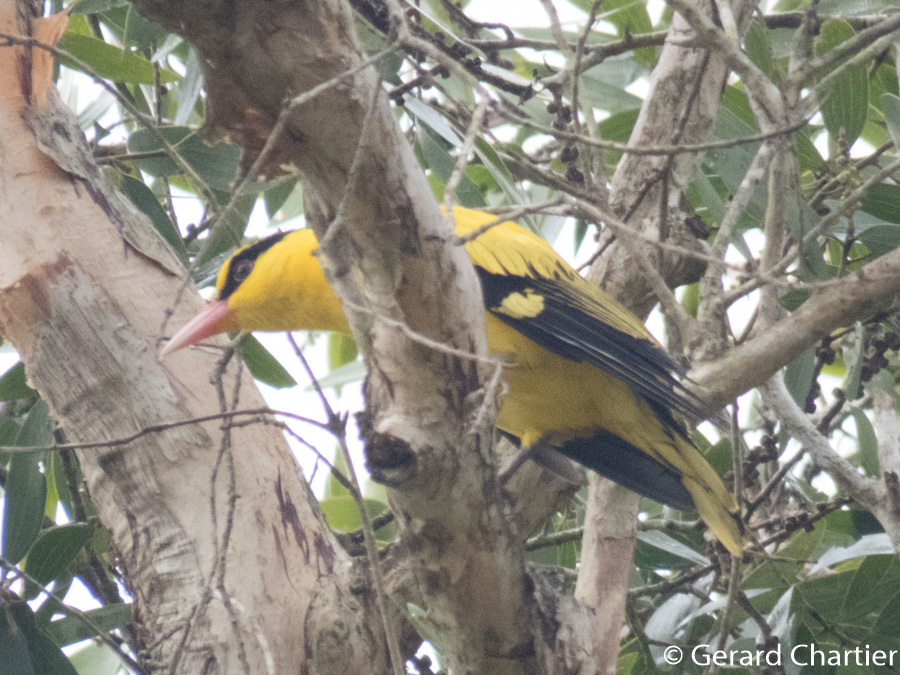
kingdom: Animalia
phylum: Chordata
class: Aves
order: Passeriformes
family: Oriolidae
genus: Oriolus
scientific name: Oriolus chinensis
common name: Black-naped oriole
